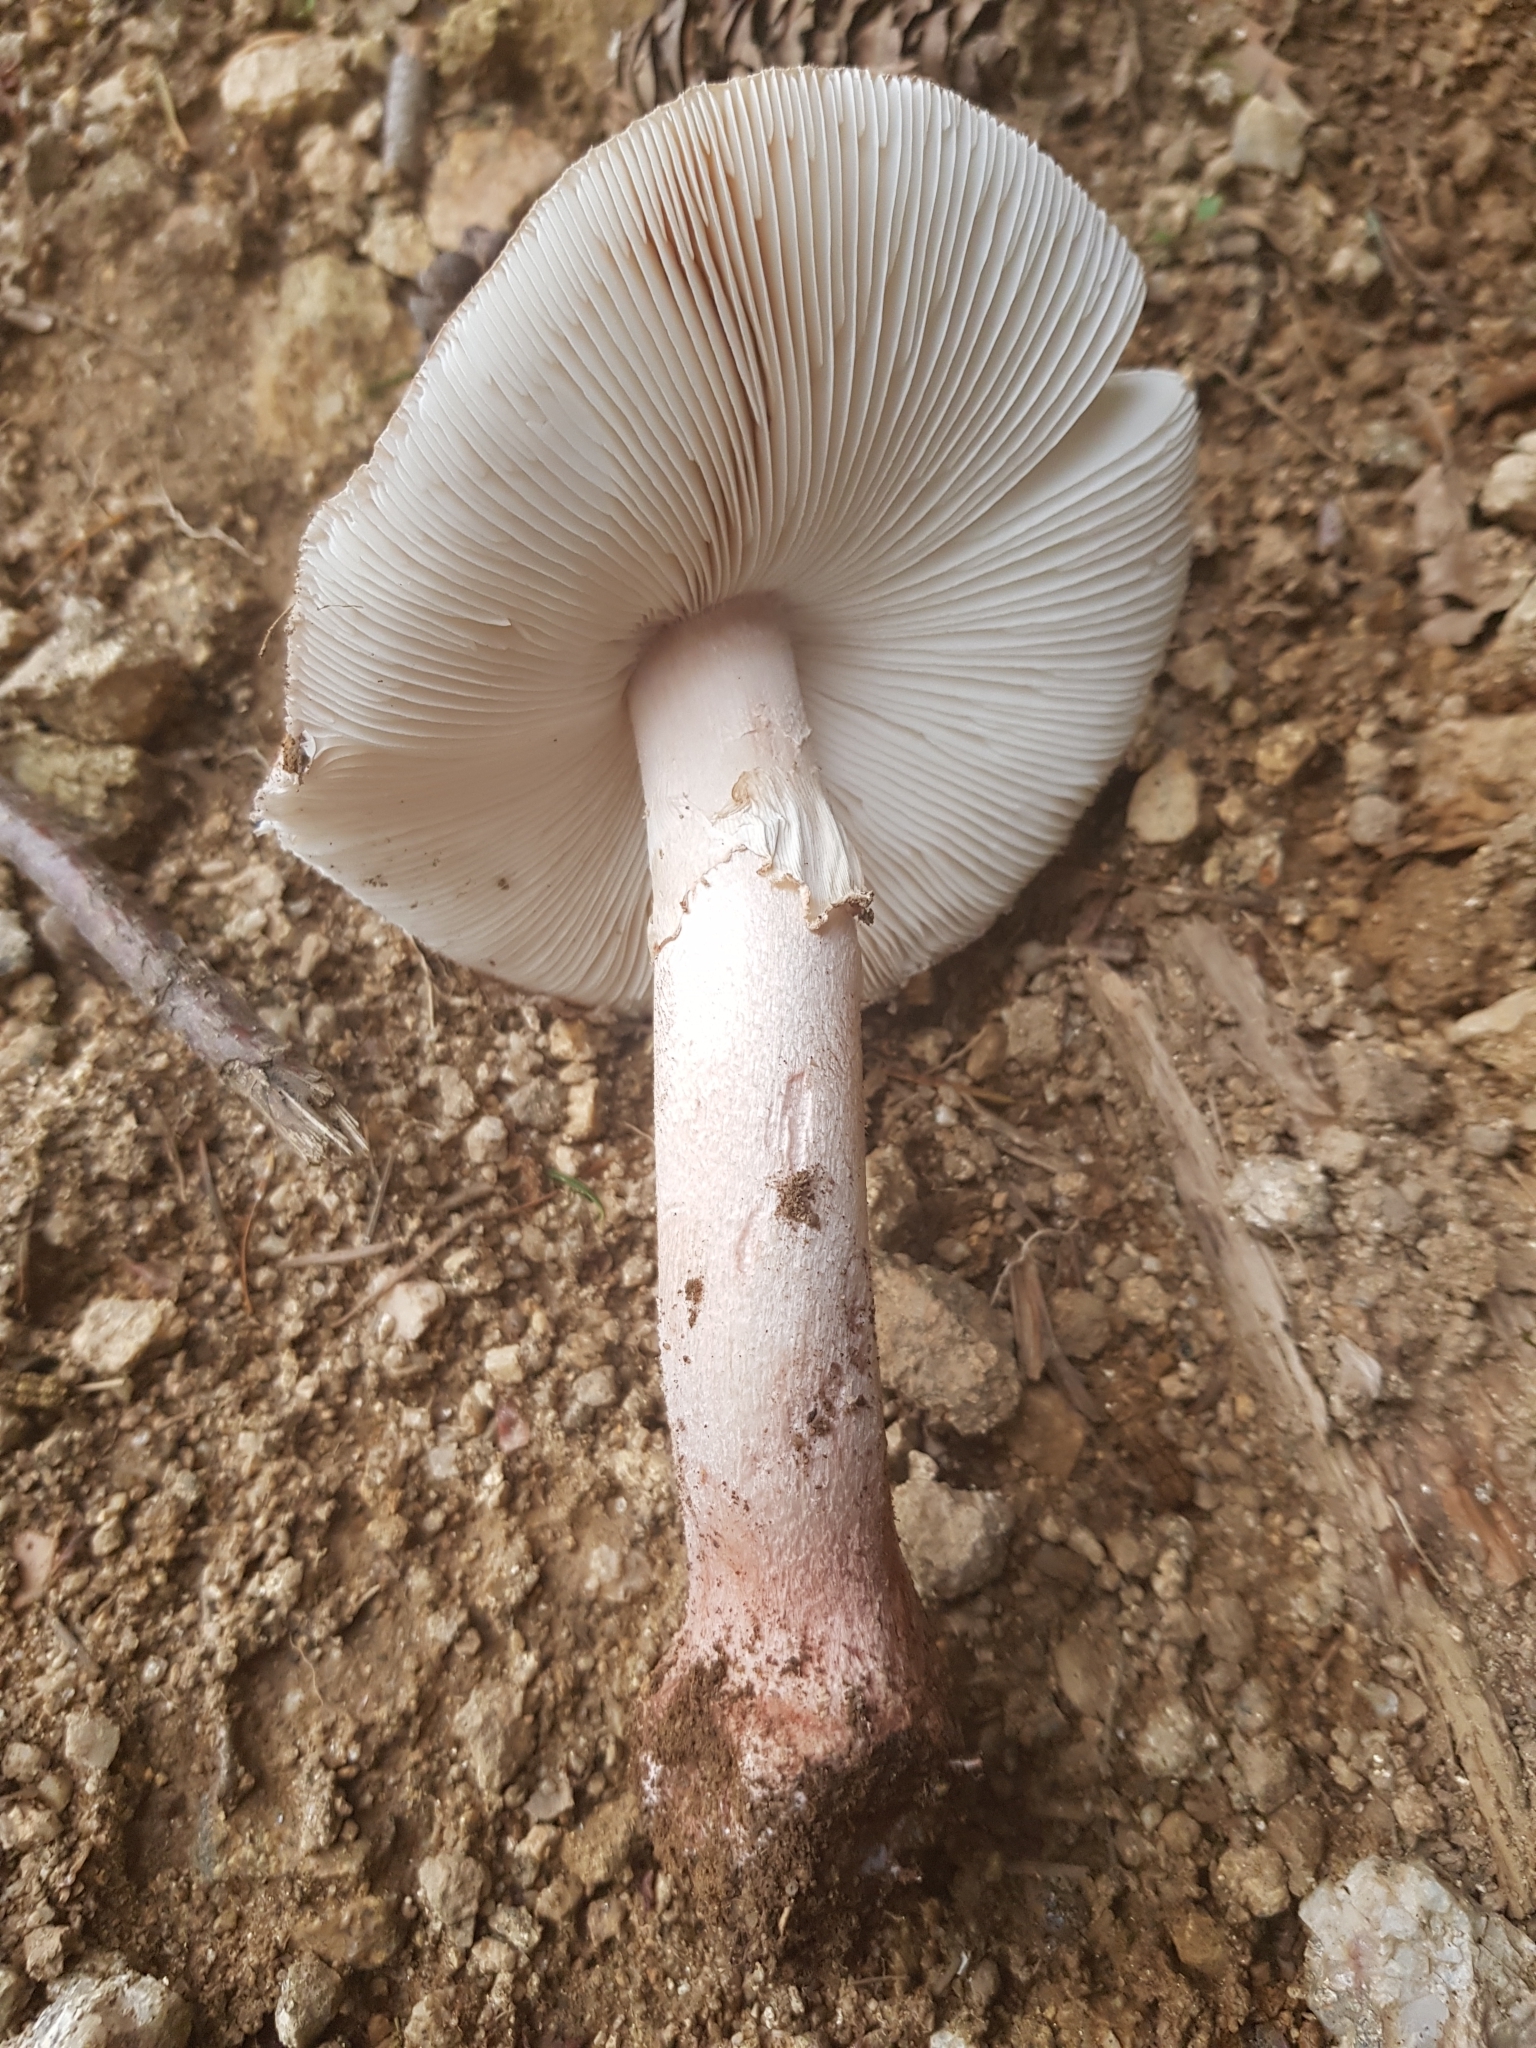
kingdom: Fungi
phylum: Basidiomycota
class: Agaricomycetes
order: Agaricales
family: Amanitaceae
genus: Amanita
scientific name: Amanita rubescens
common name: Blusher
